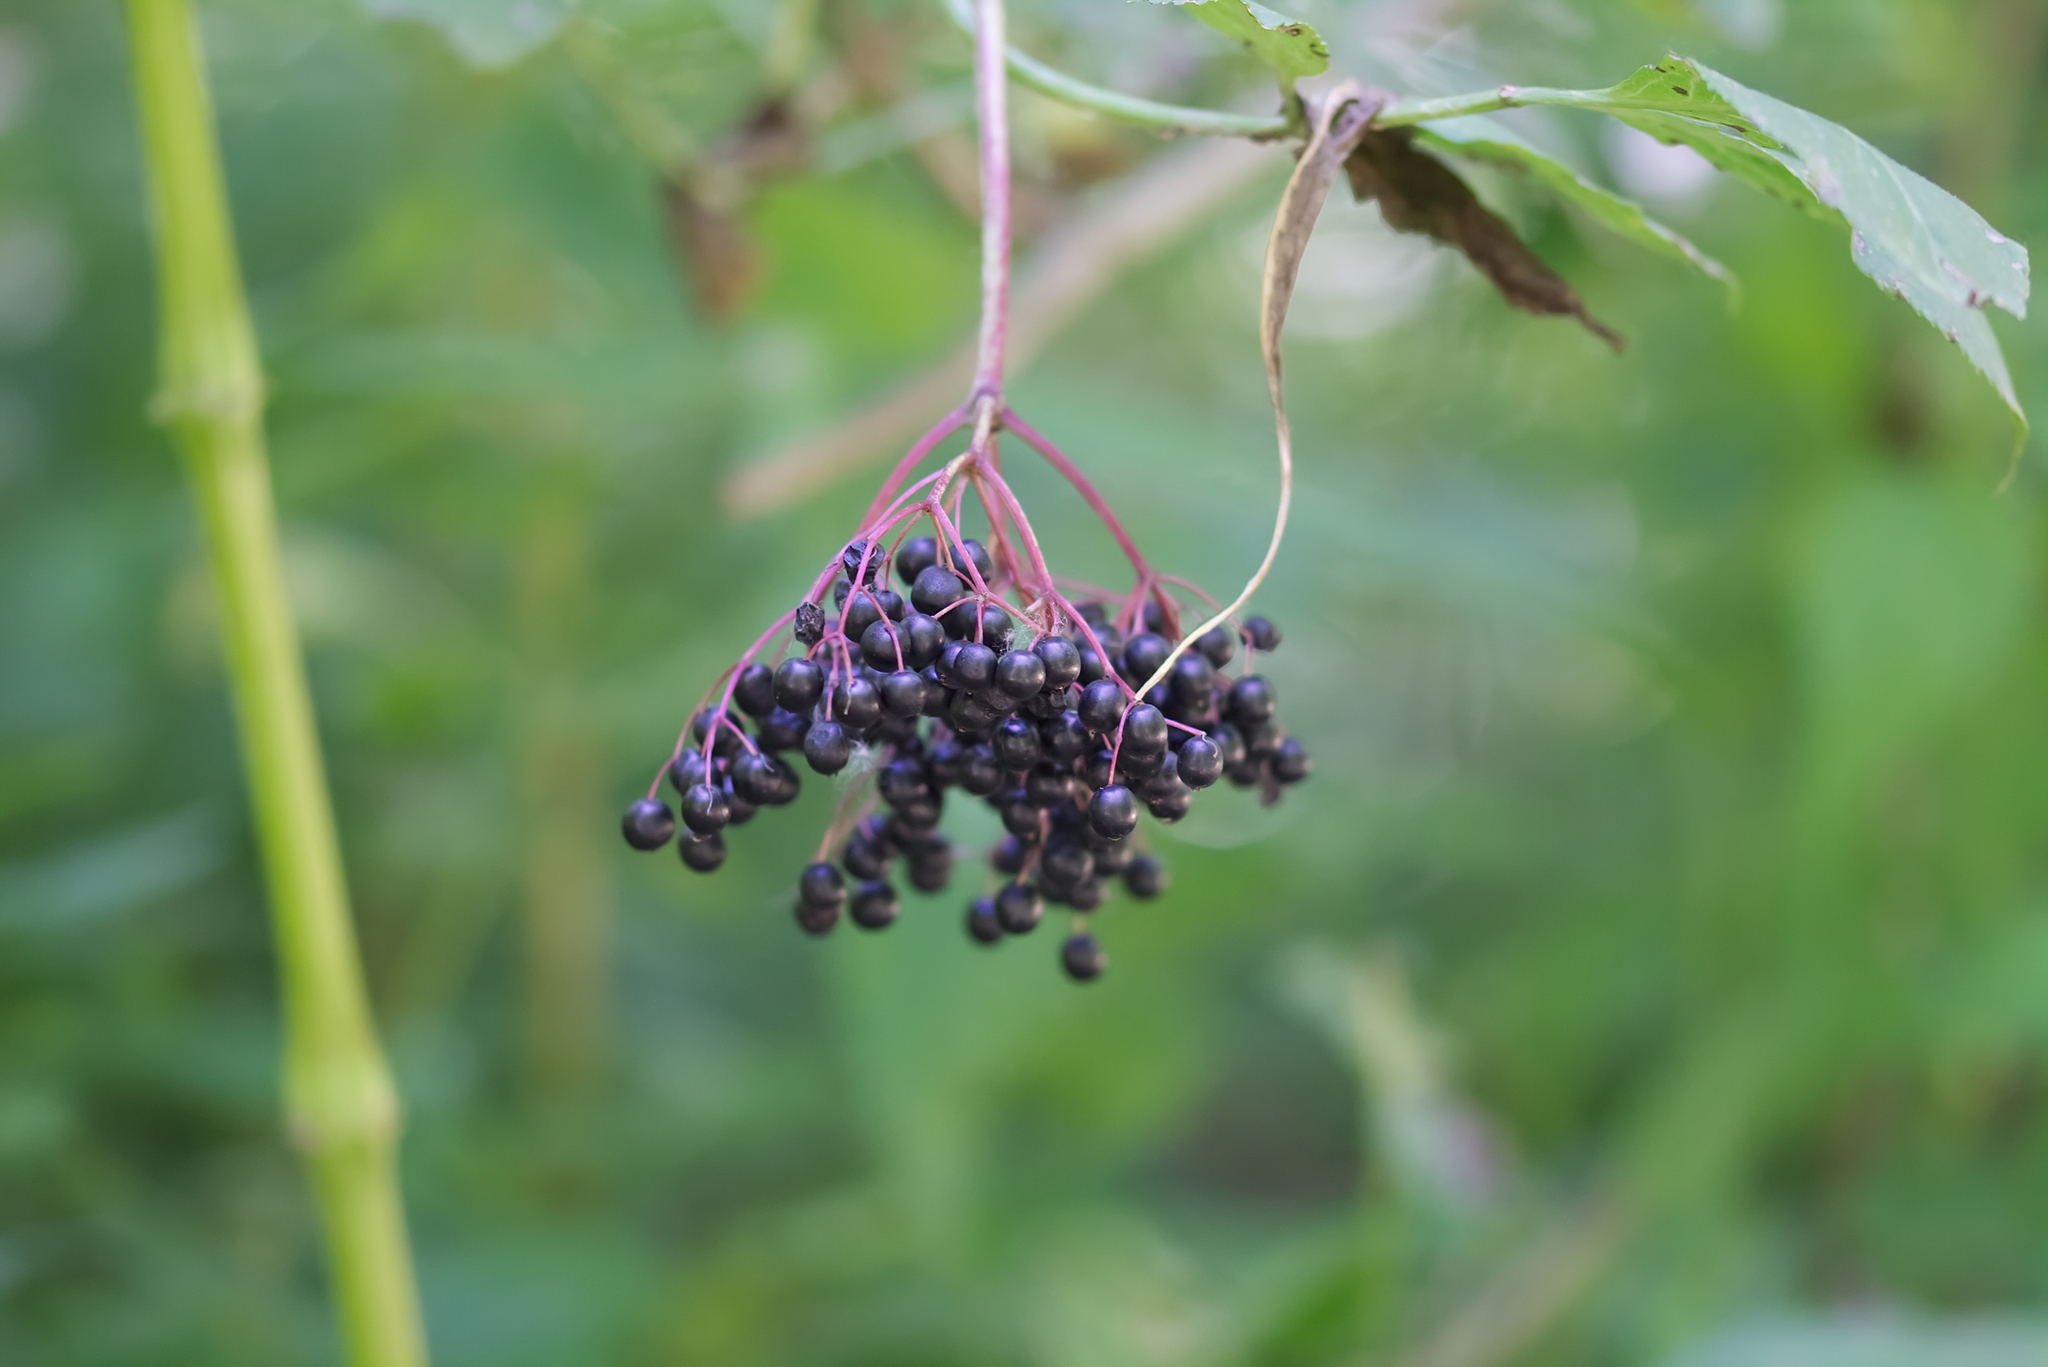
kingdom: Plantae
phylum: Tracheophyta
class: Magnoliopsida
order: Dipsacales
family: Viburnaceae
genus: Sambucus
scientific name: Sambucus nigra
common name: Elder
